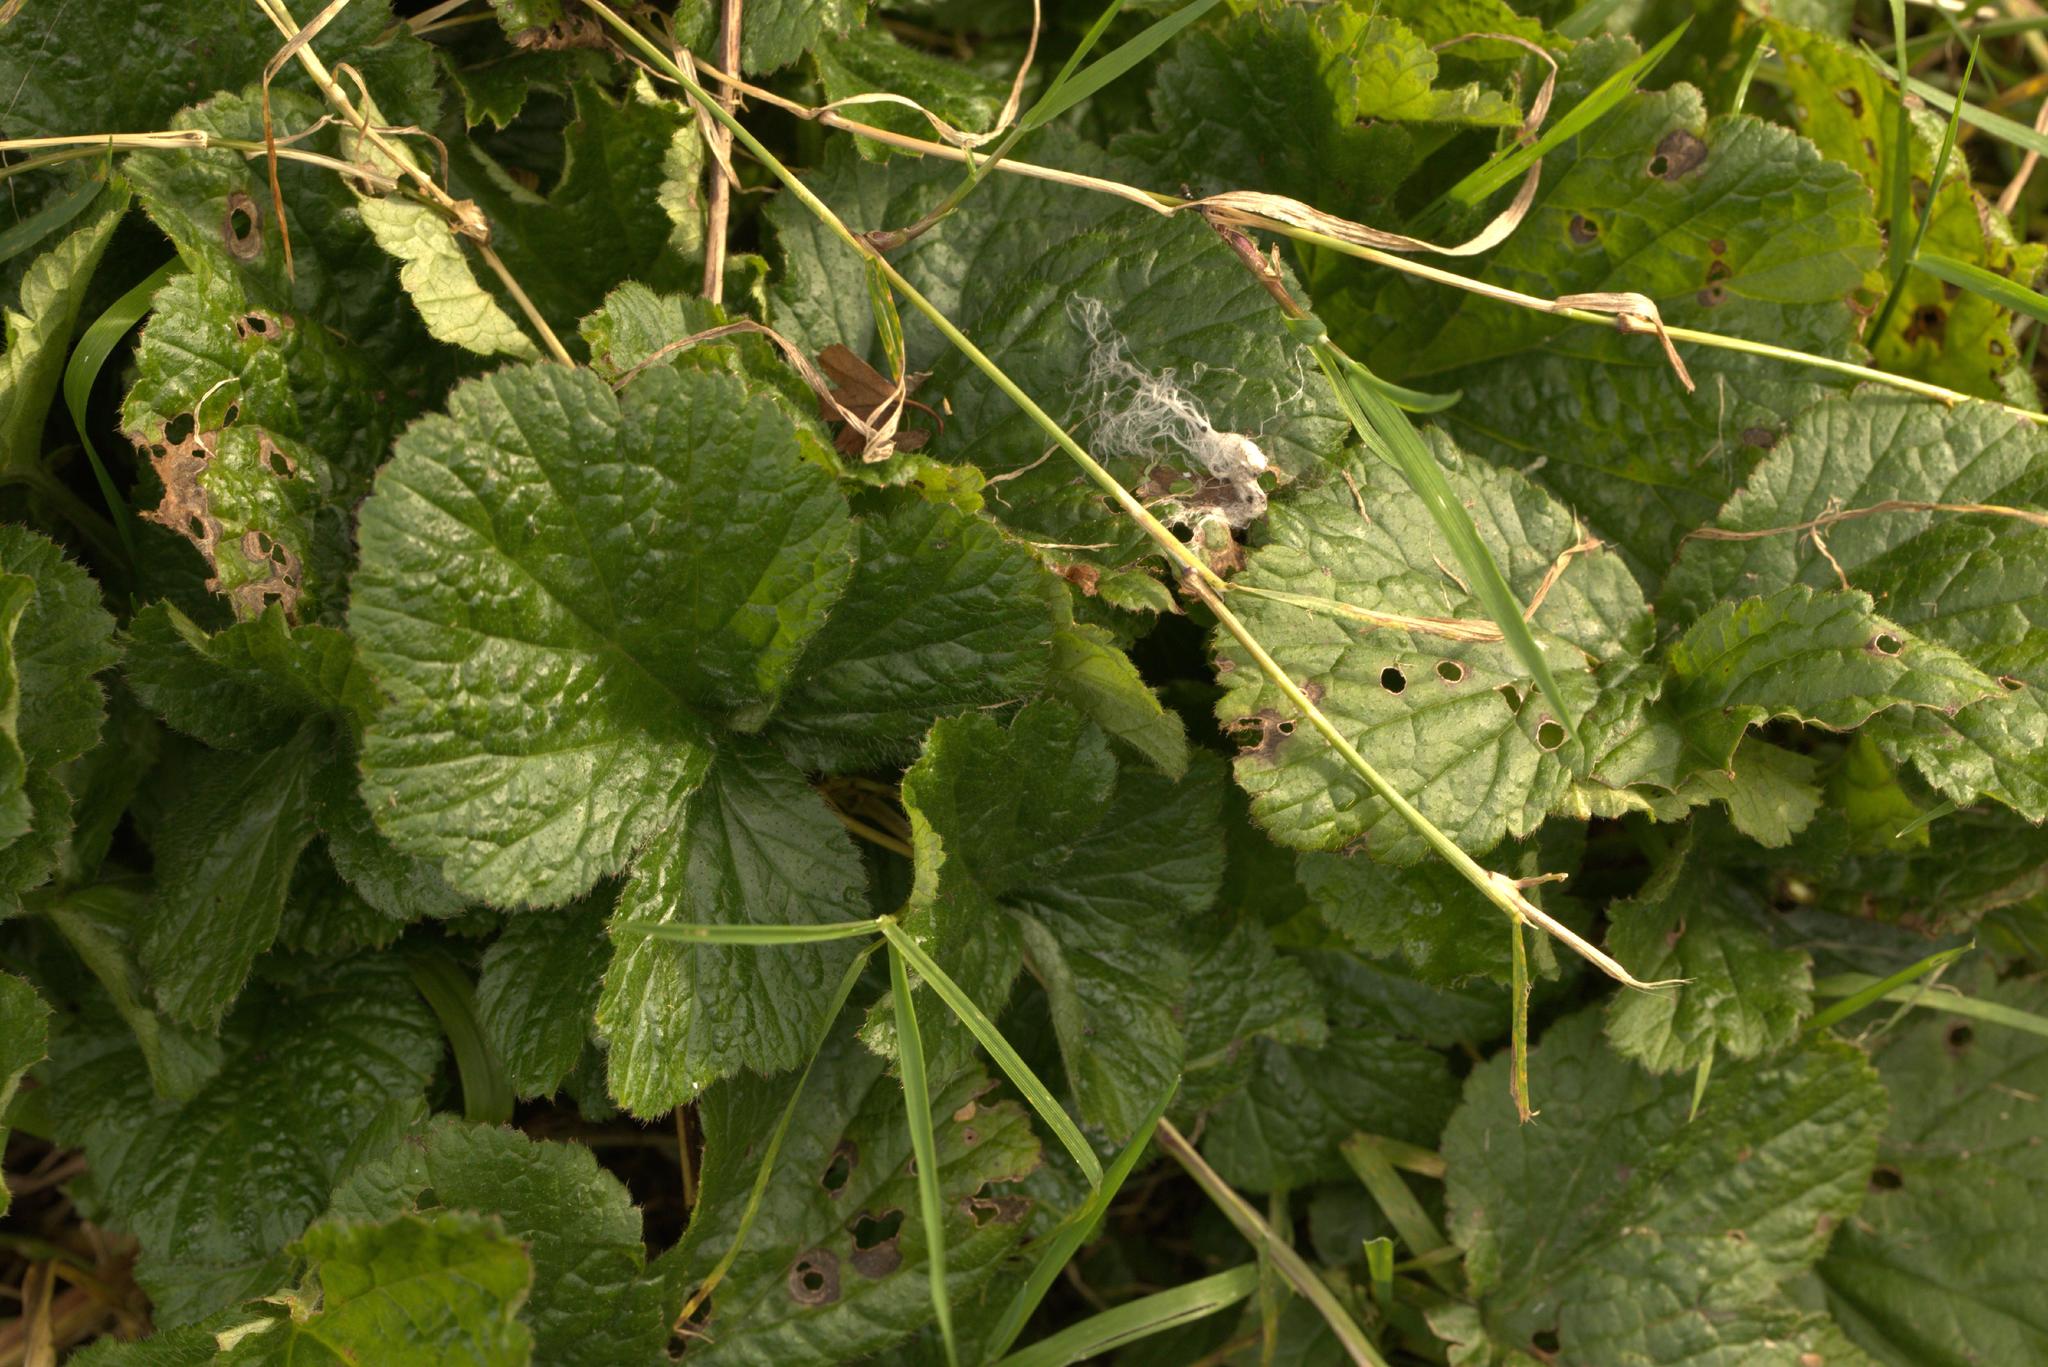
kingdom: Plantae
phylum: Tracheophyta
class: Magnoliopsida
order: Rosales
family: Rosaceae
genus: Geum
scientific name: Geum urbanum
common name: Wood avens
